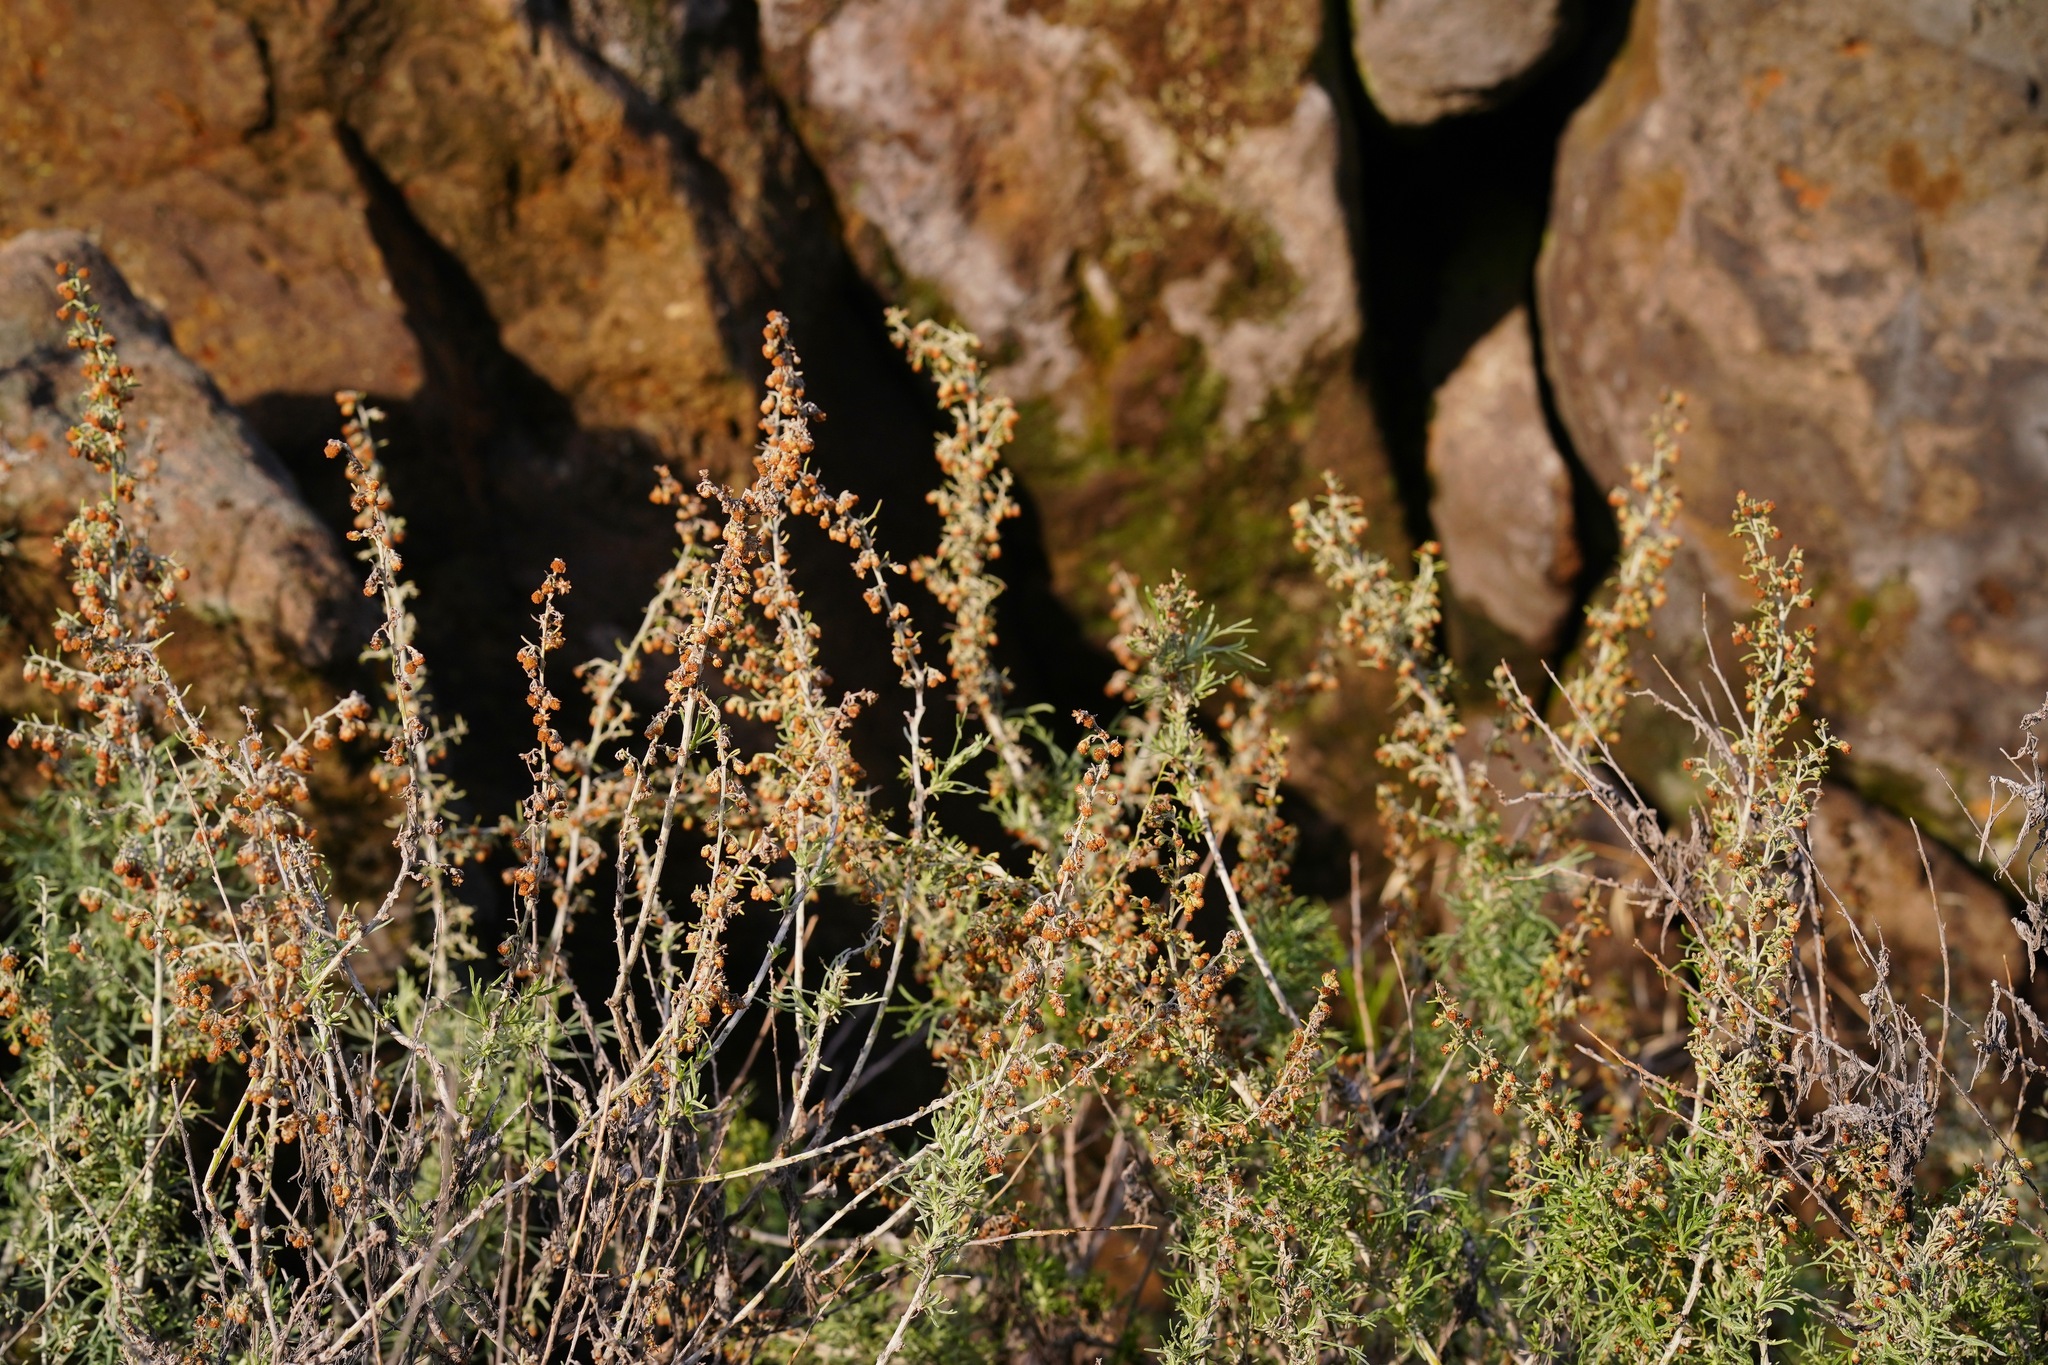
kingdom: Plantae
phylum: Tracheophyta
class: Magnoliopsida
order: Asterales
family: Asteraceae
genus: Artemisia
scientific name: Artemisia californica
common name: California sagebrush
